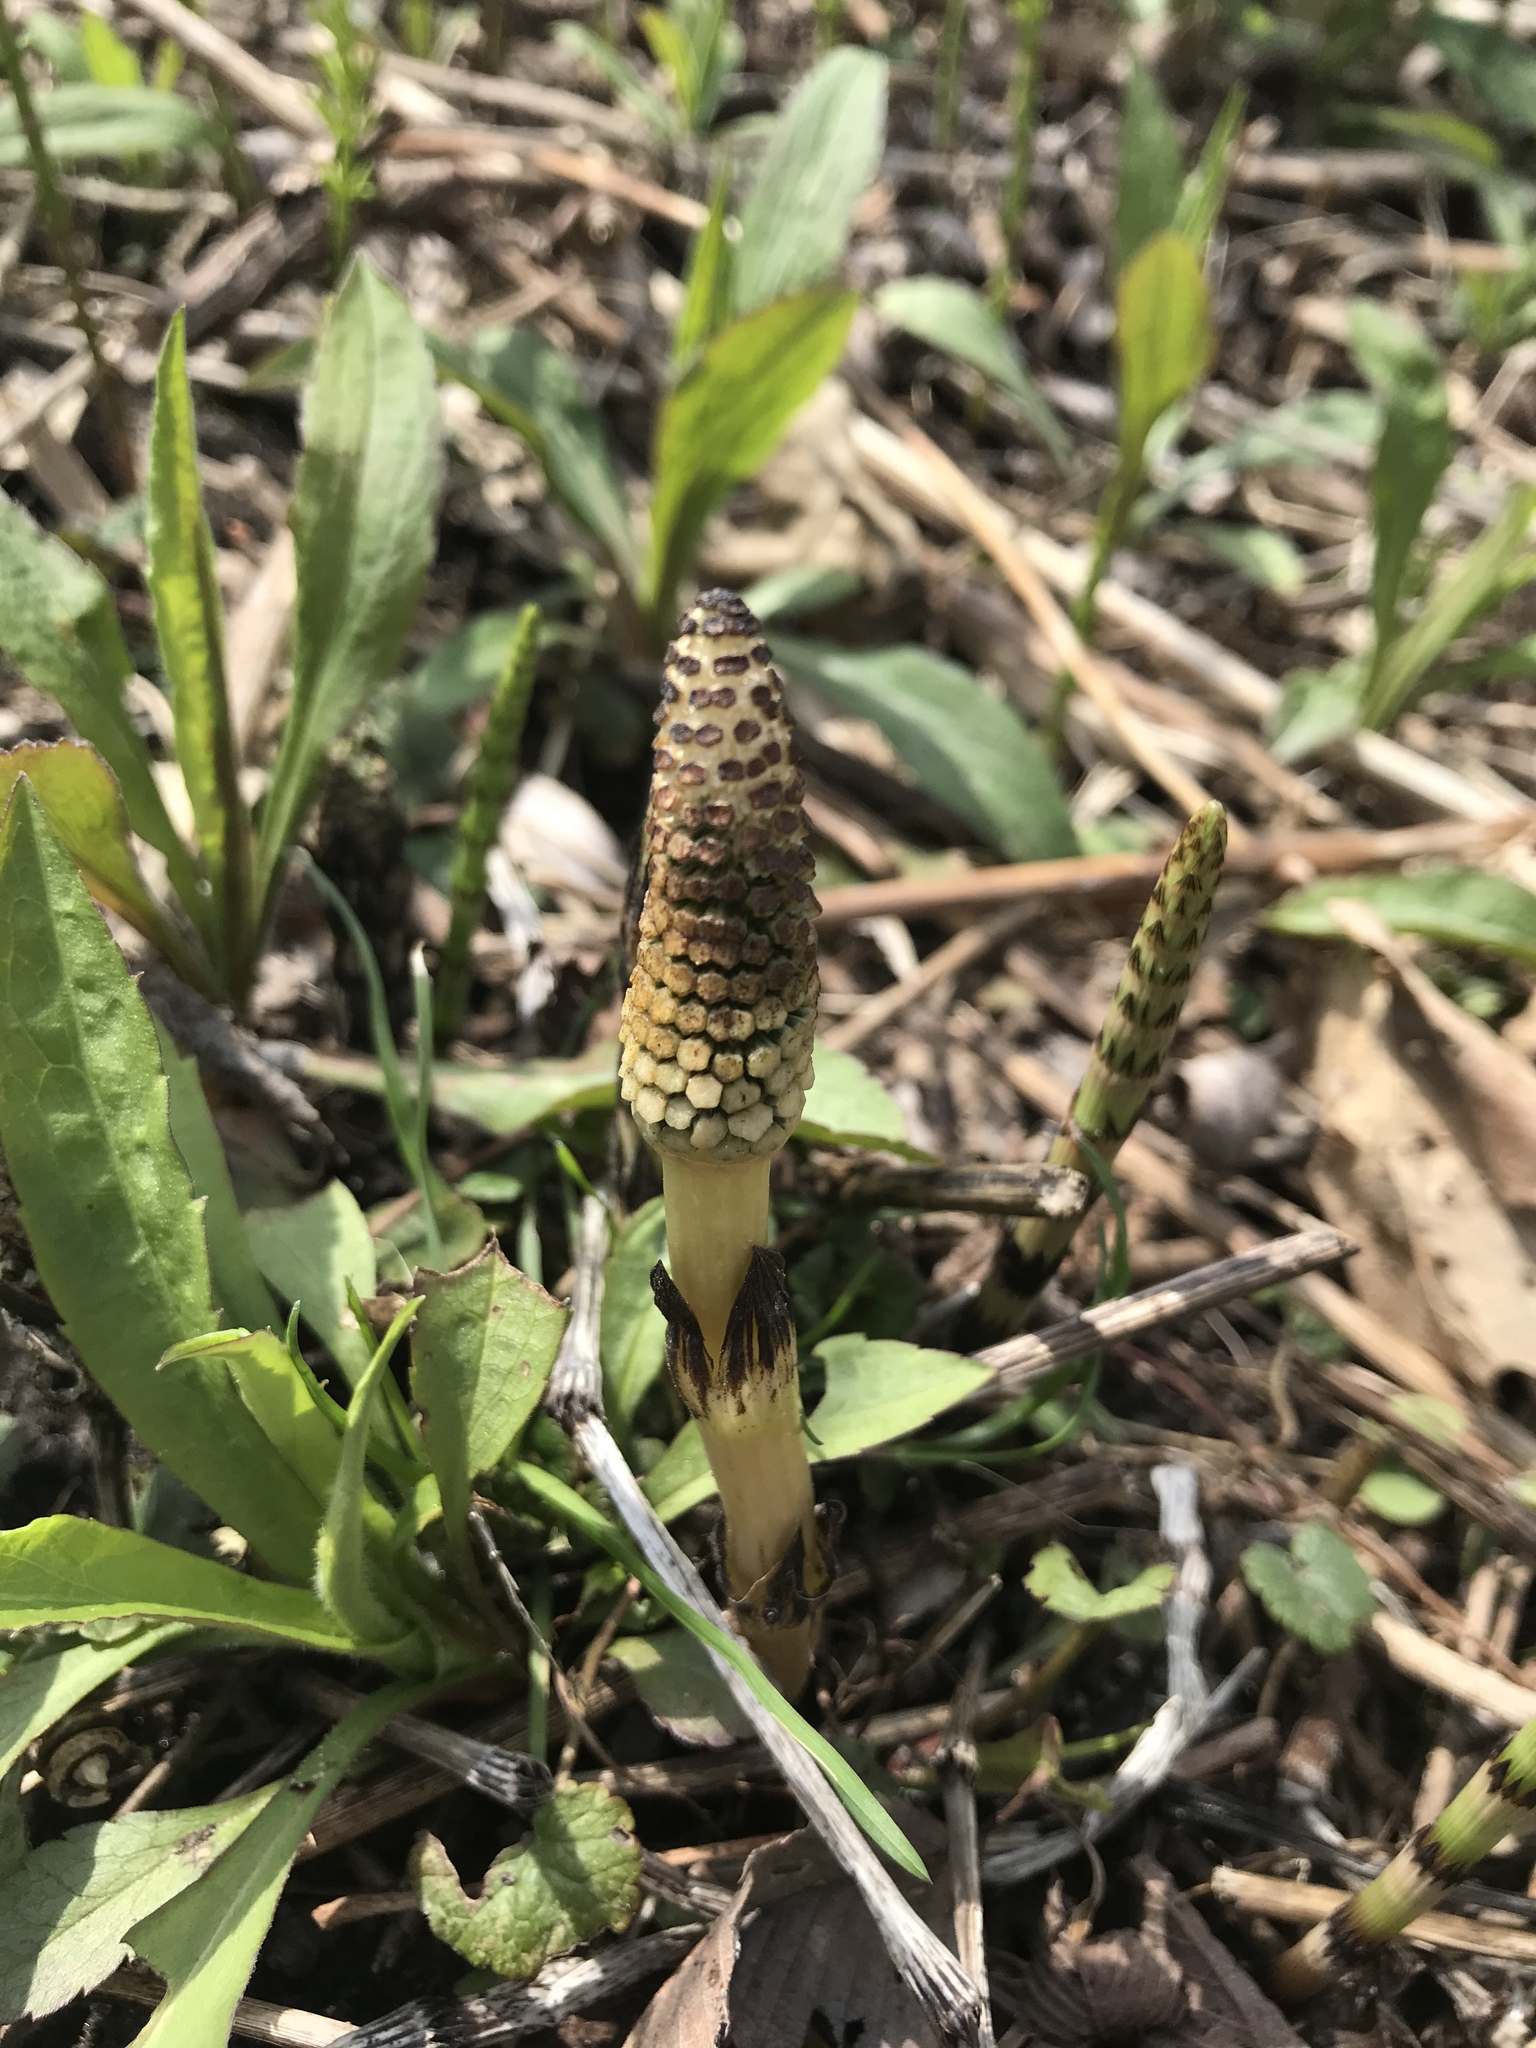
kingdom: Plantae
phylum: Tracheophyta
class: Polypodiopsida
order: Equisetales
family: Equisetaceae
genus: Equisetum
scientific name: Equisetum arvense
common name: Field horsetail
